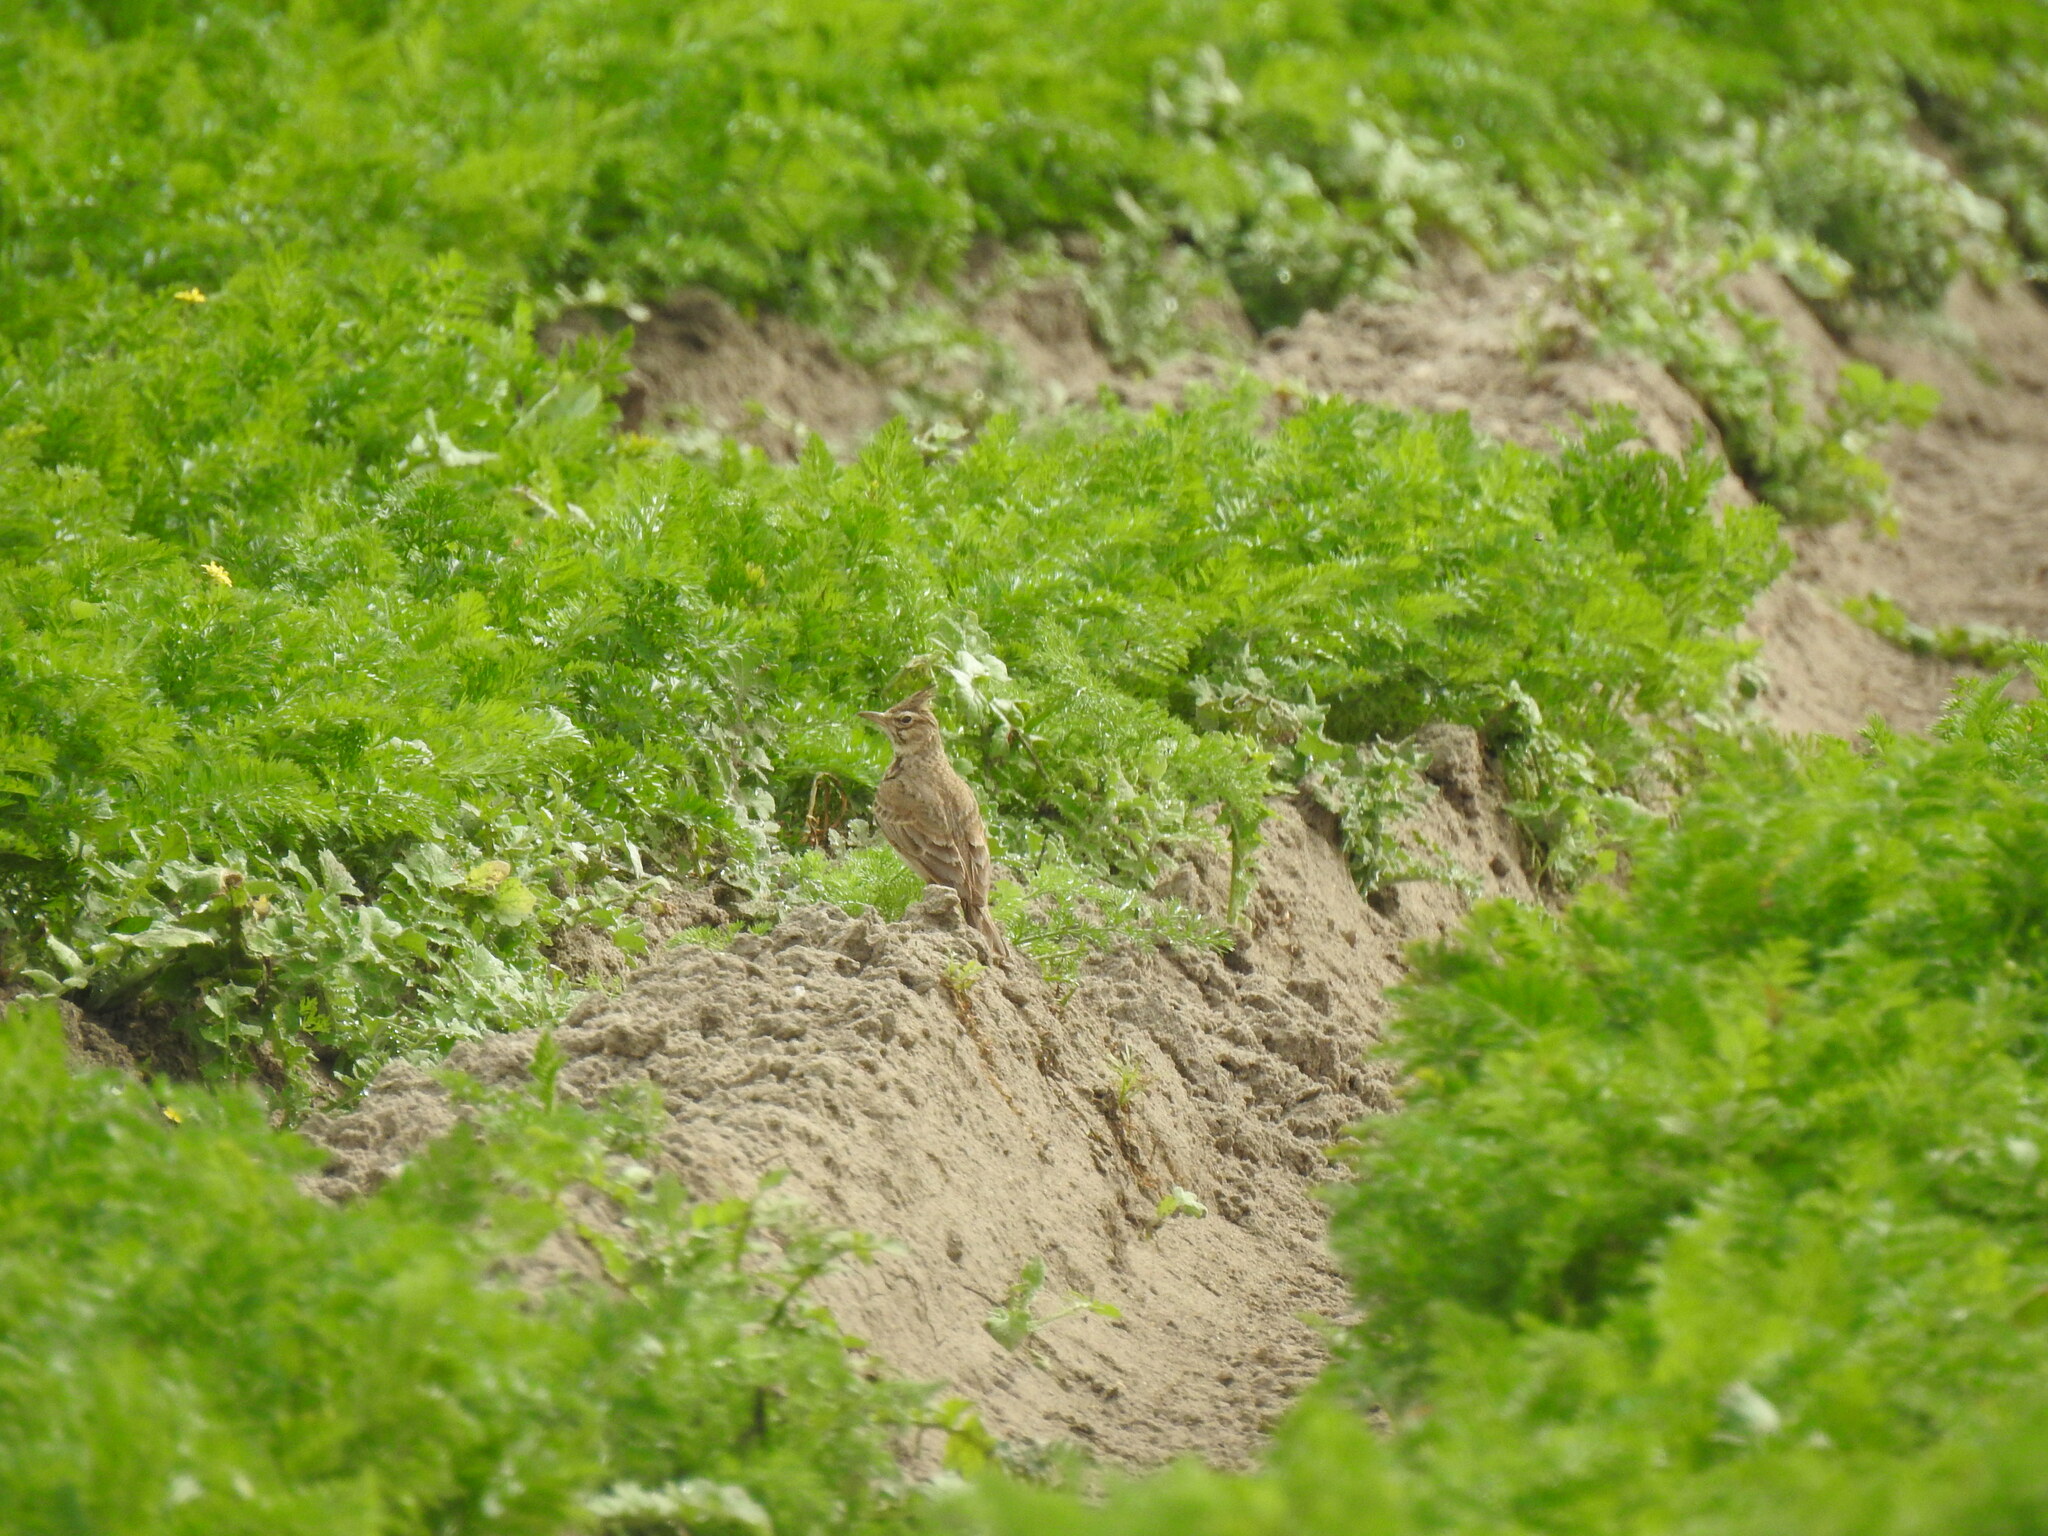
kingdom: Animalia
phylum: Chordata
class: Aves
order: Passeriformes
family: Alaudidae
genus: Galerida
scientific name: Galerida cristata
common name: Crested lark
